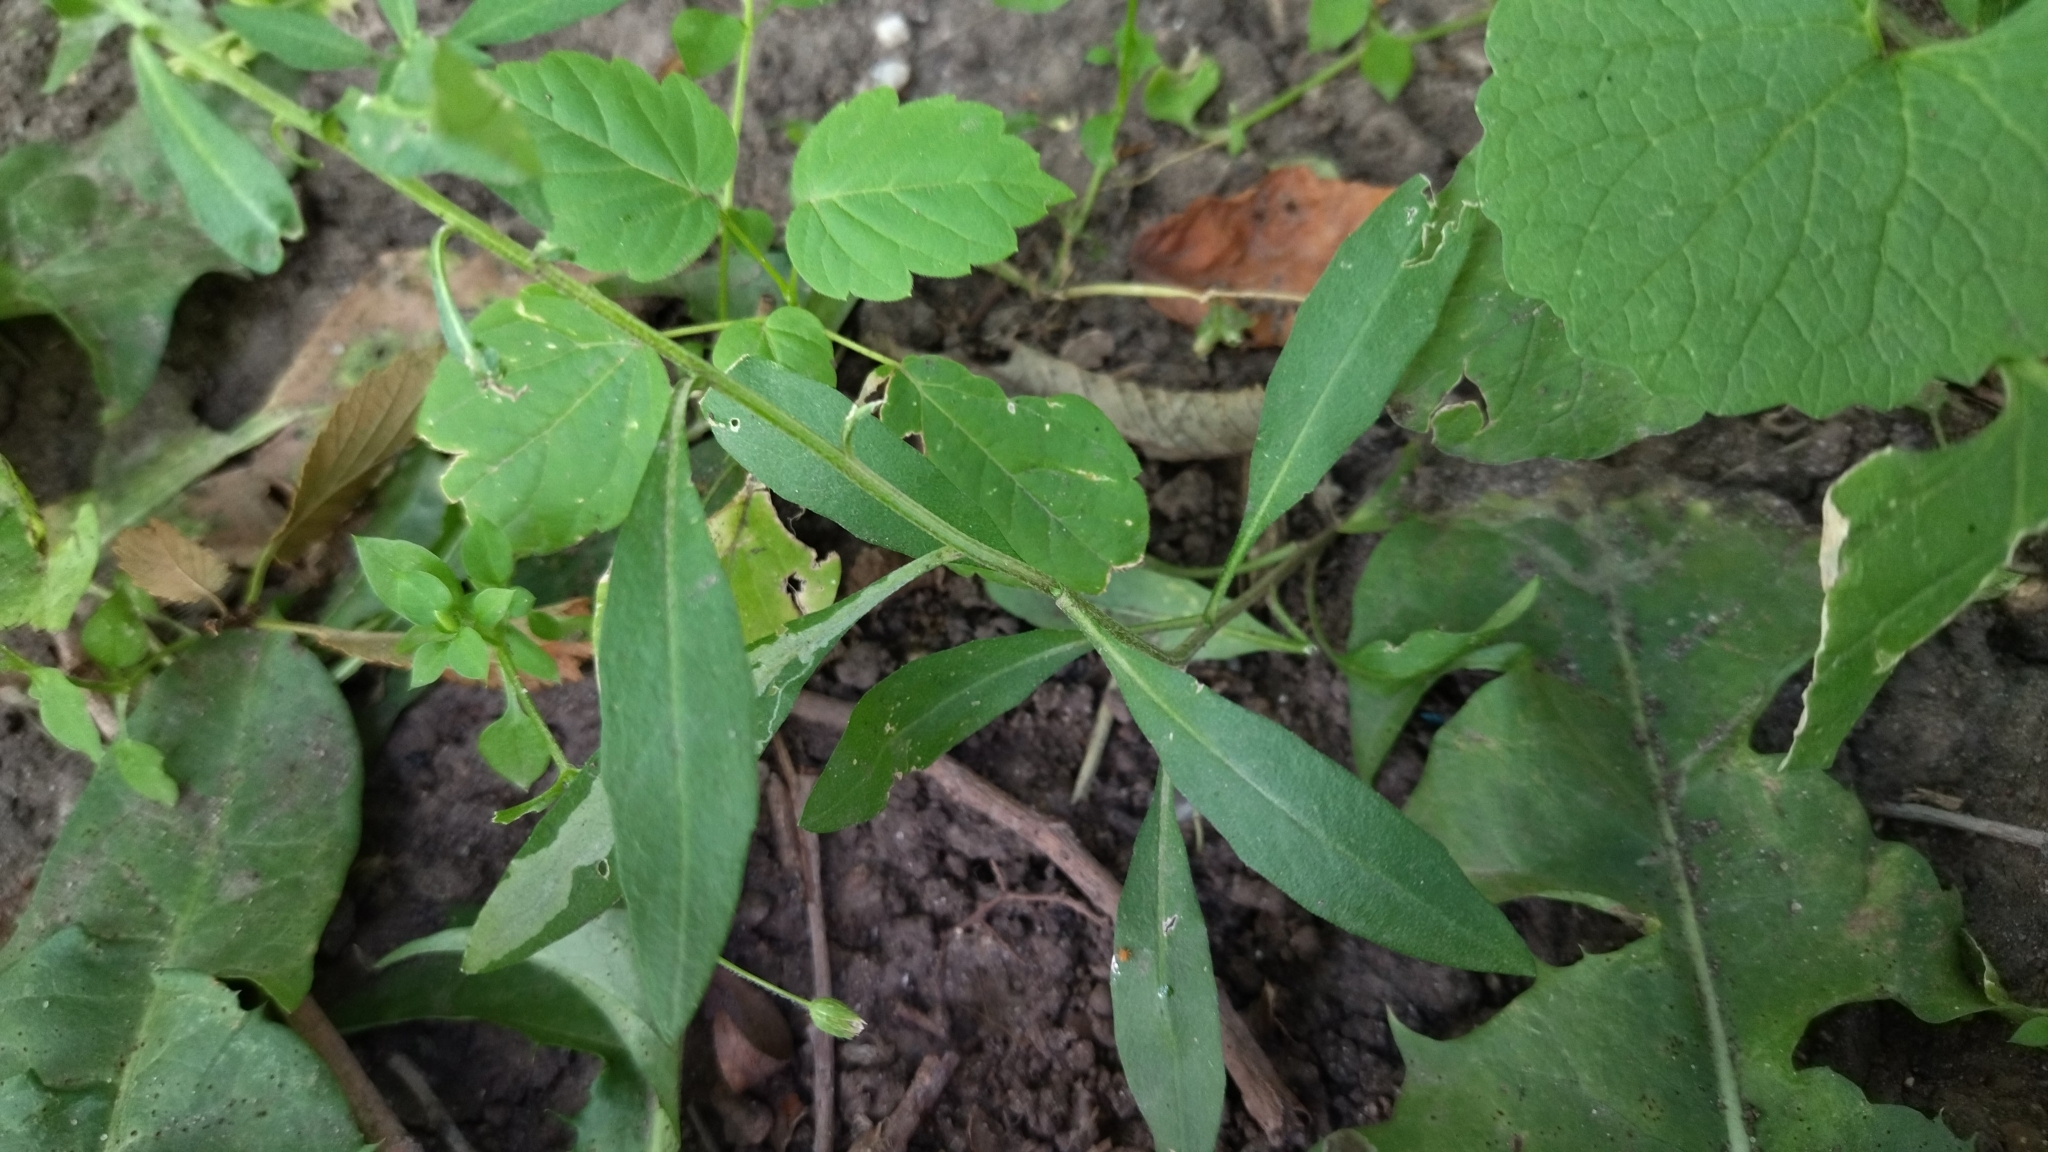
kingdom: Plantae
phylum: Tracheophyta
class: Magnoliopsida
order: Brassicales
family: Brassicaceae
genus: Erysimum
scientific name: Erysimum cheiranthoides
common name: Treacle mustard
